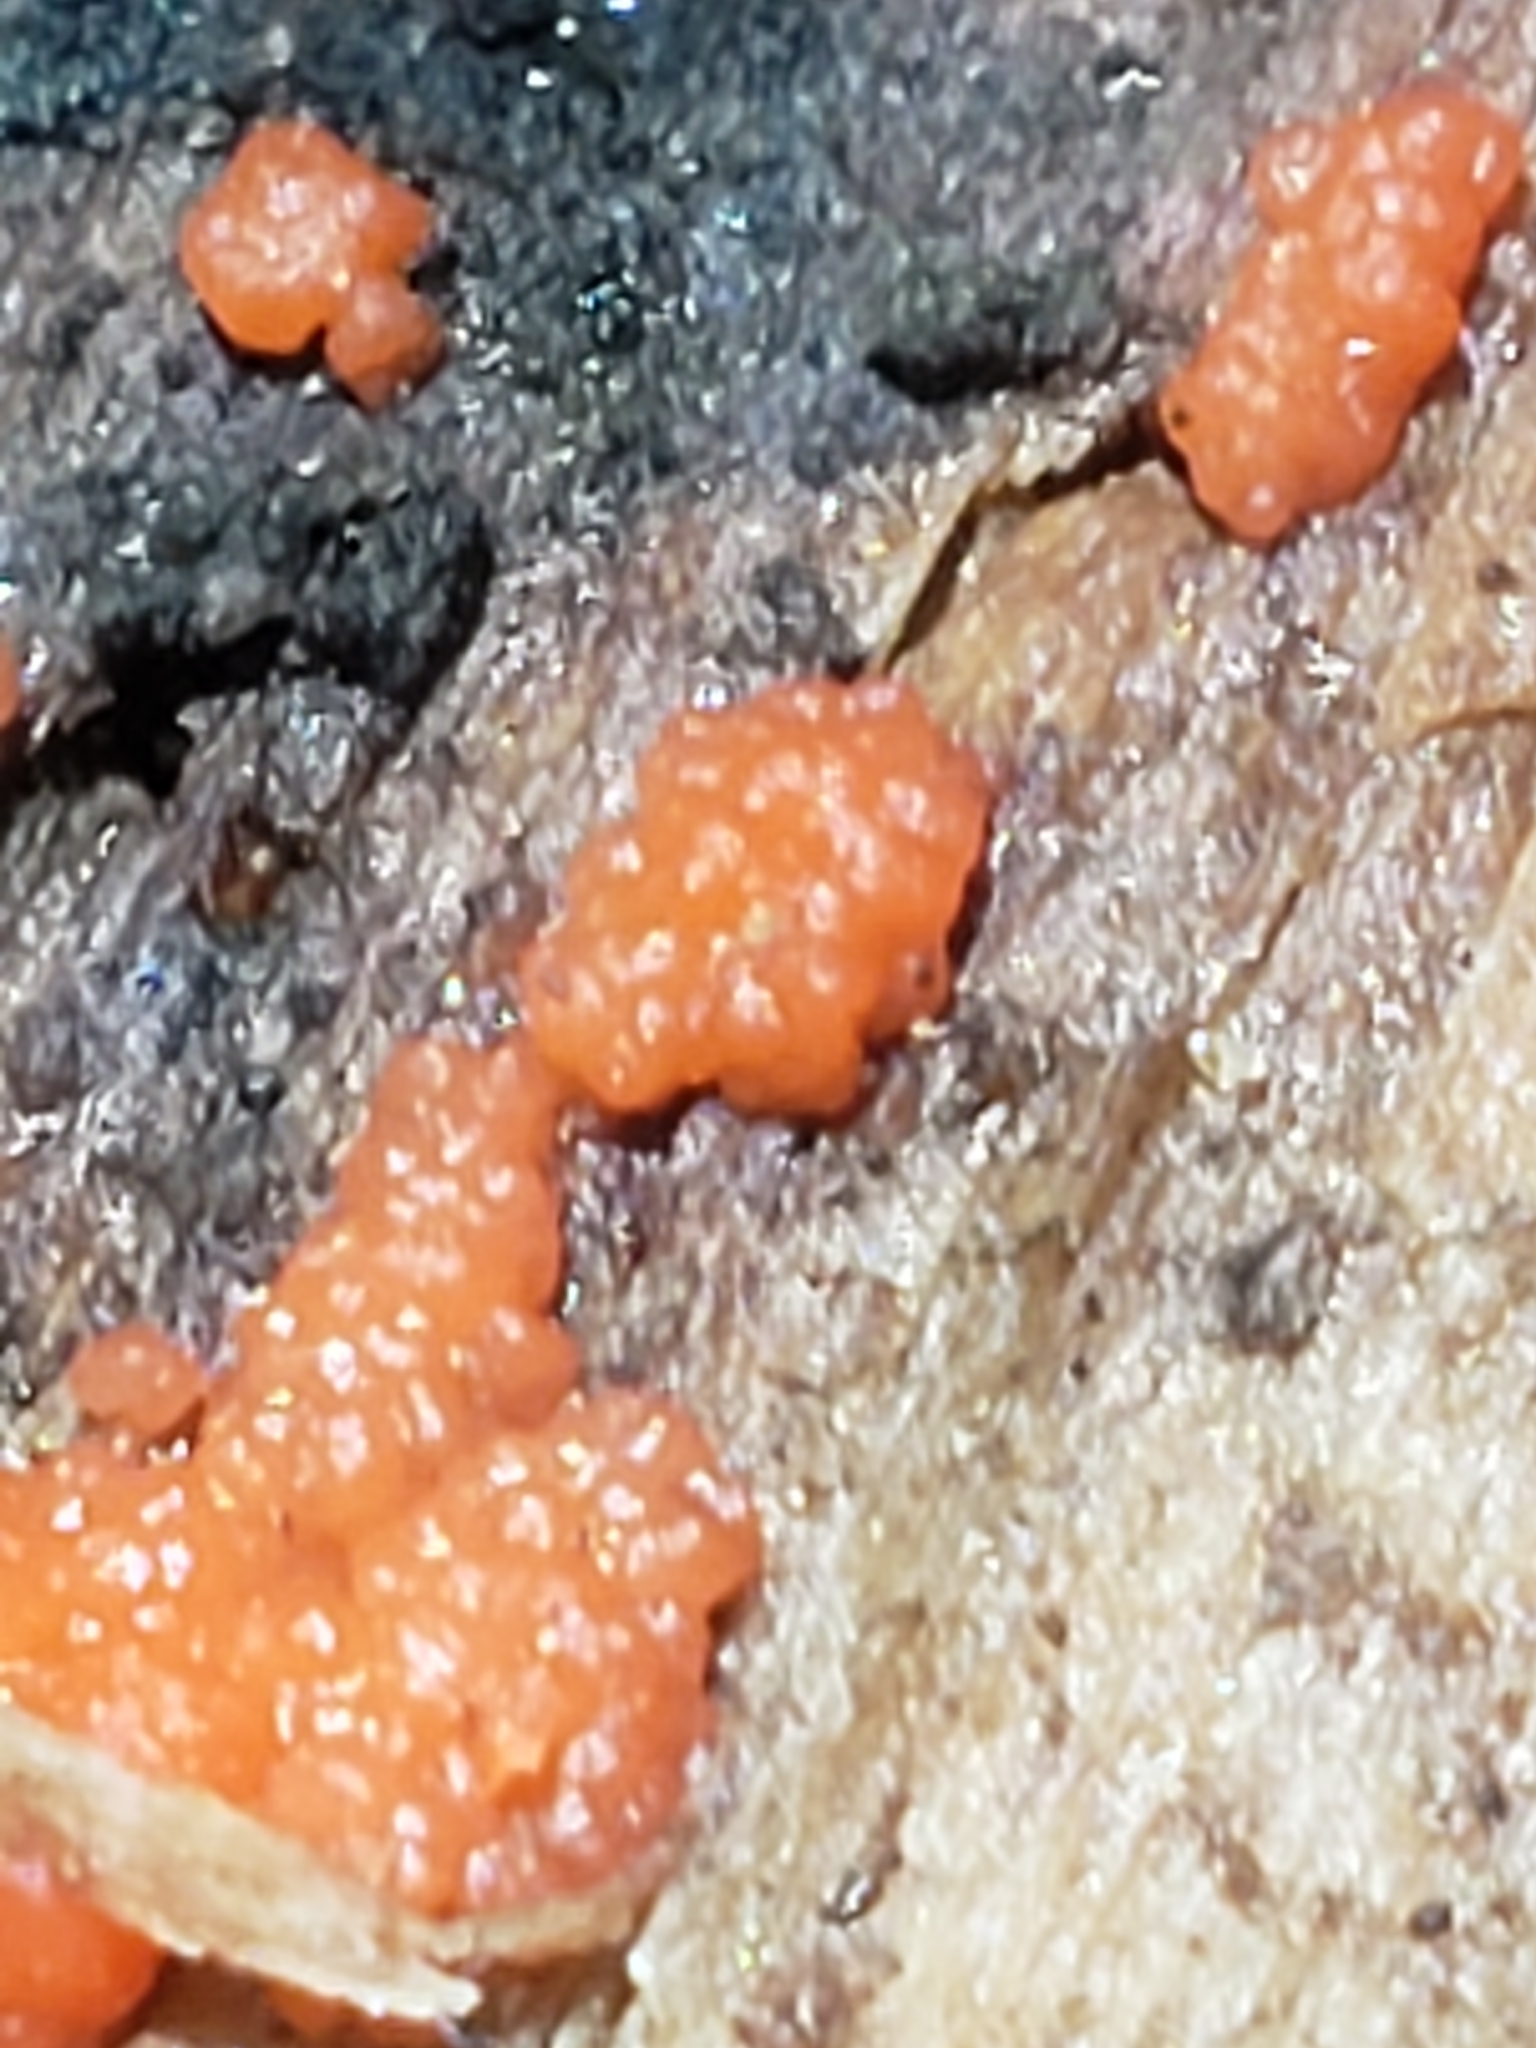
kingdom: Fungi
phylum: Basidiomycota
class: Agaricomycetes
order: Cantharellales
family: Tulasnellaceae
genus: Tulasnella
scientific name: Tulasnella aurantiaca
